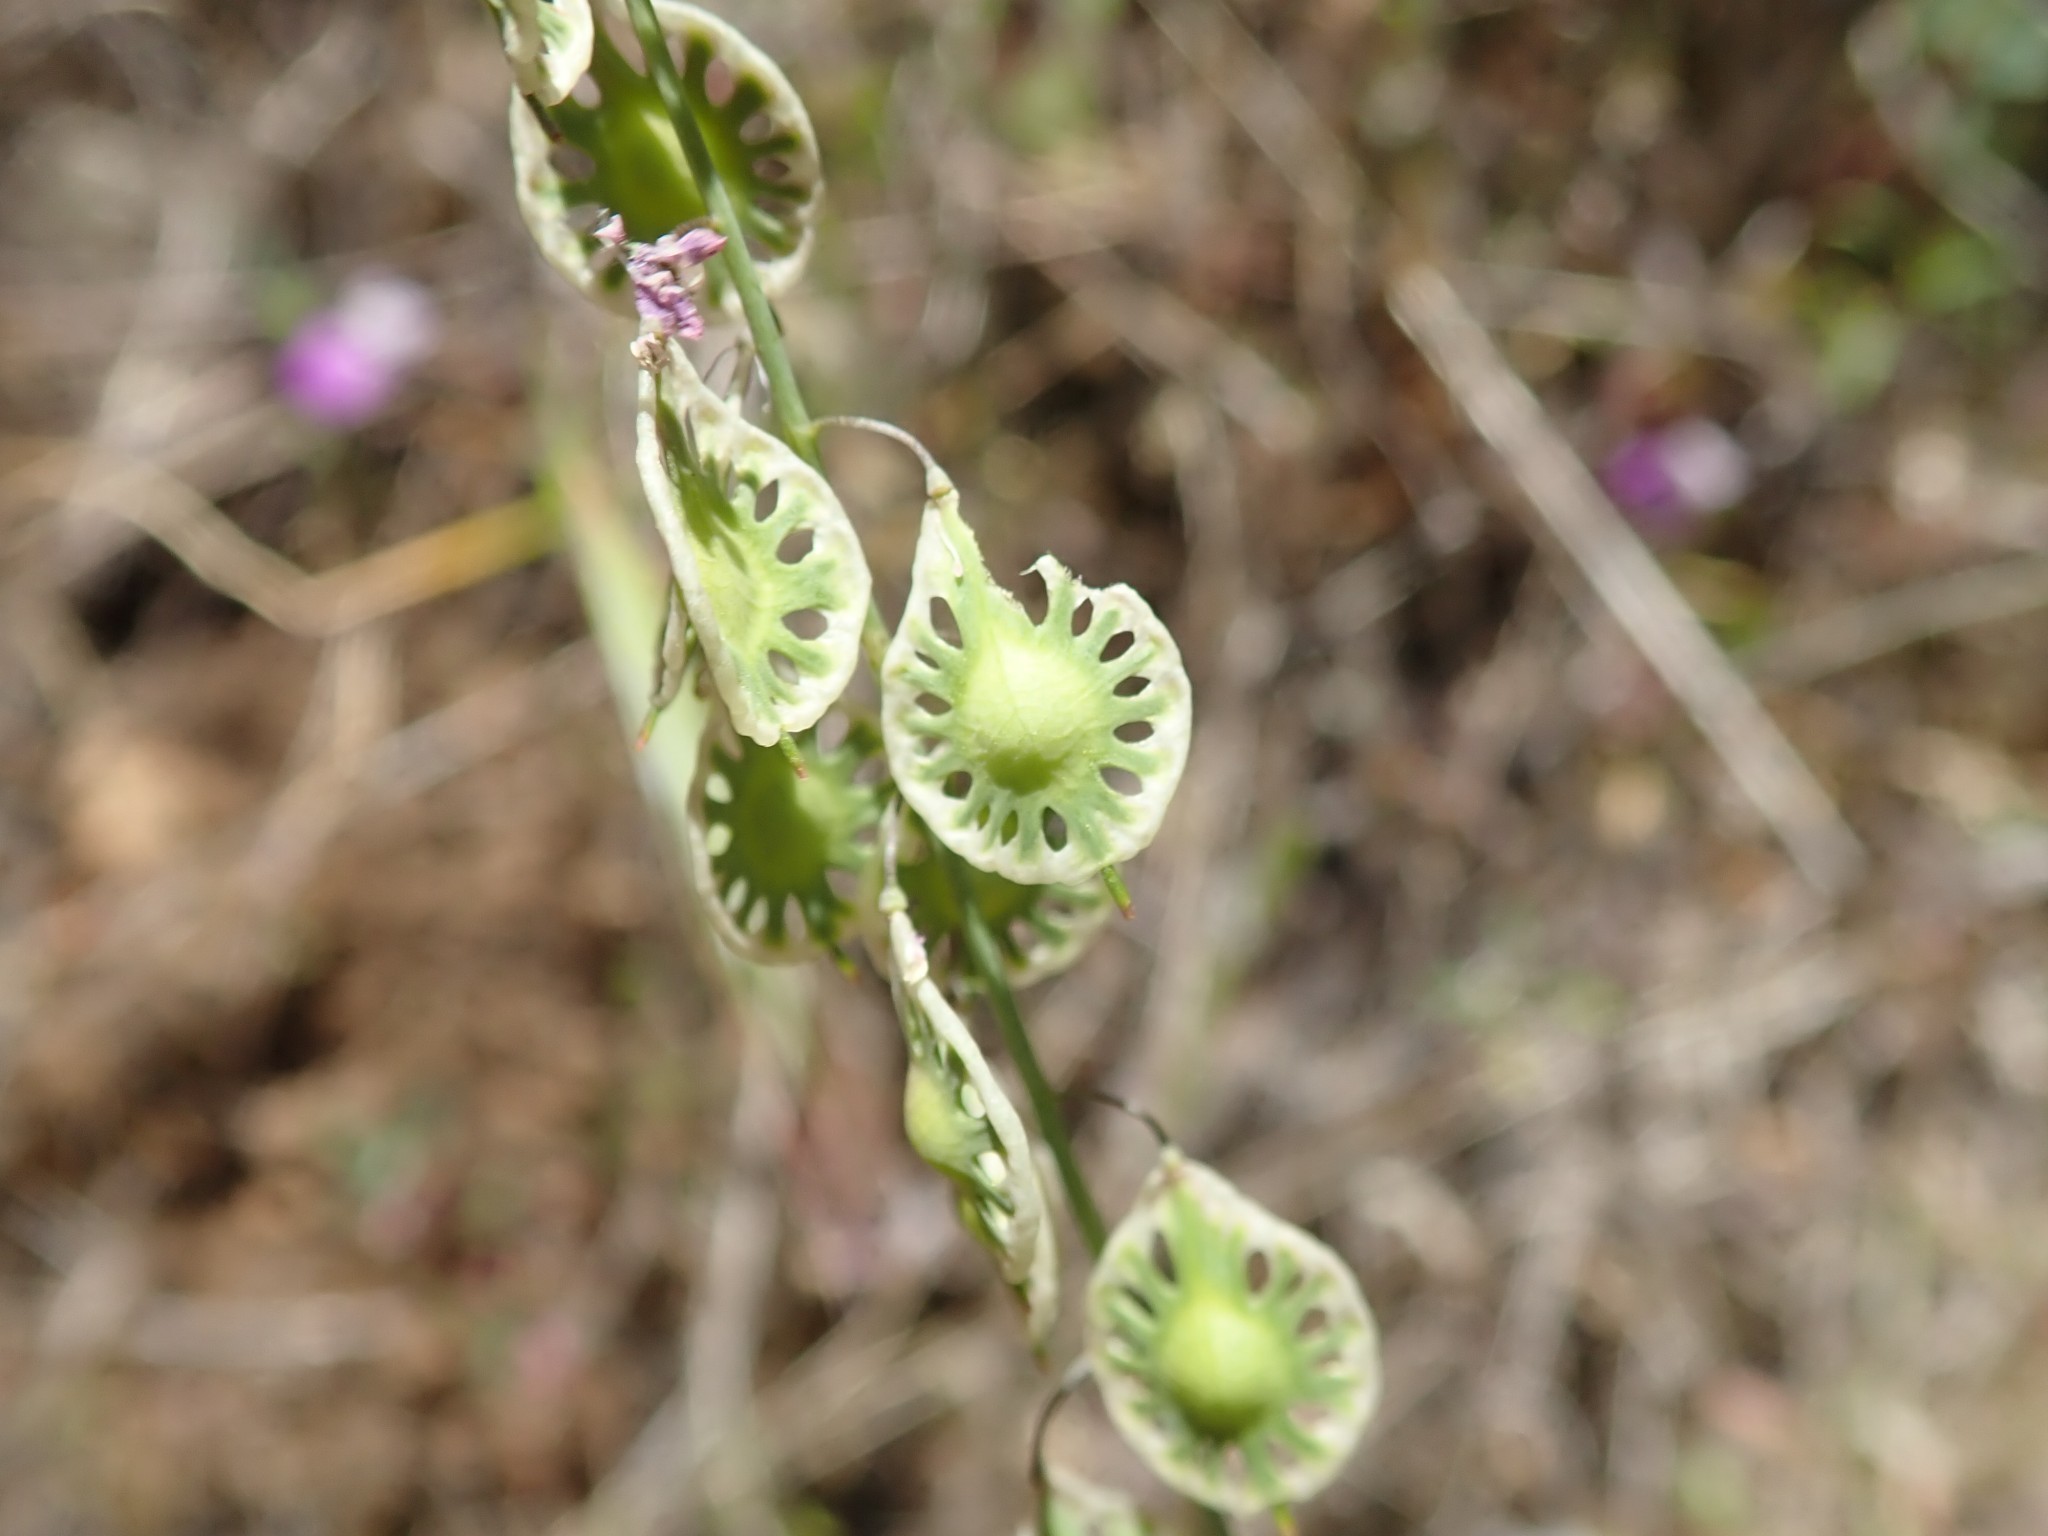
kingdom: Plantae
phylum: Tracheophyta
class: Magnoliopsida
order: Brassicales
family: Brassicaceae
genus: Thysanocarpus
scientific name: Thysanocarpus curvipes
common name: Sand fringepod
